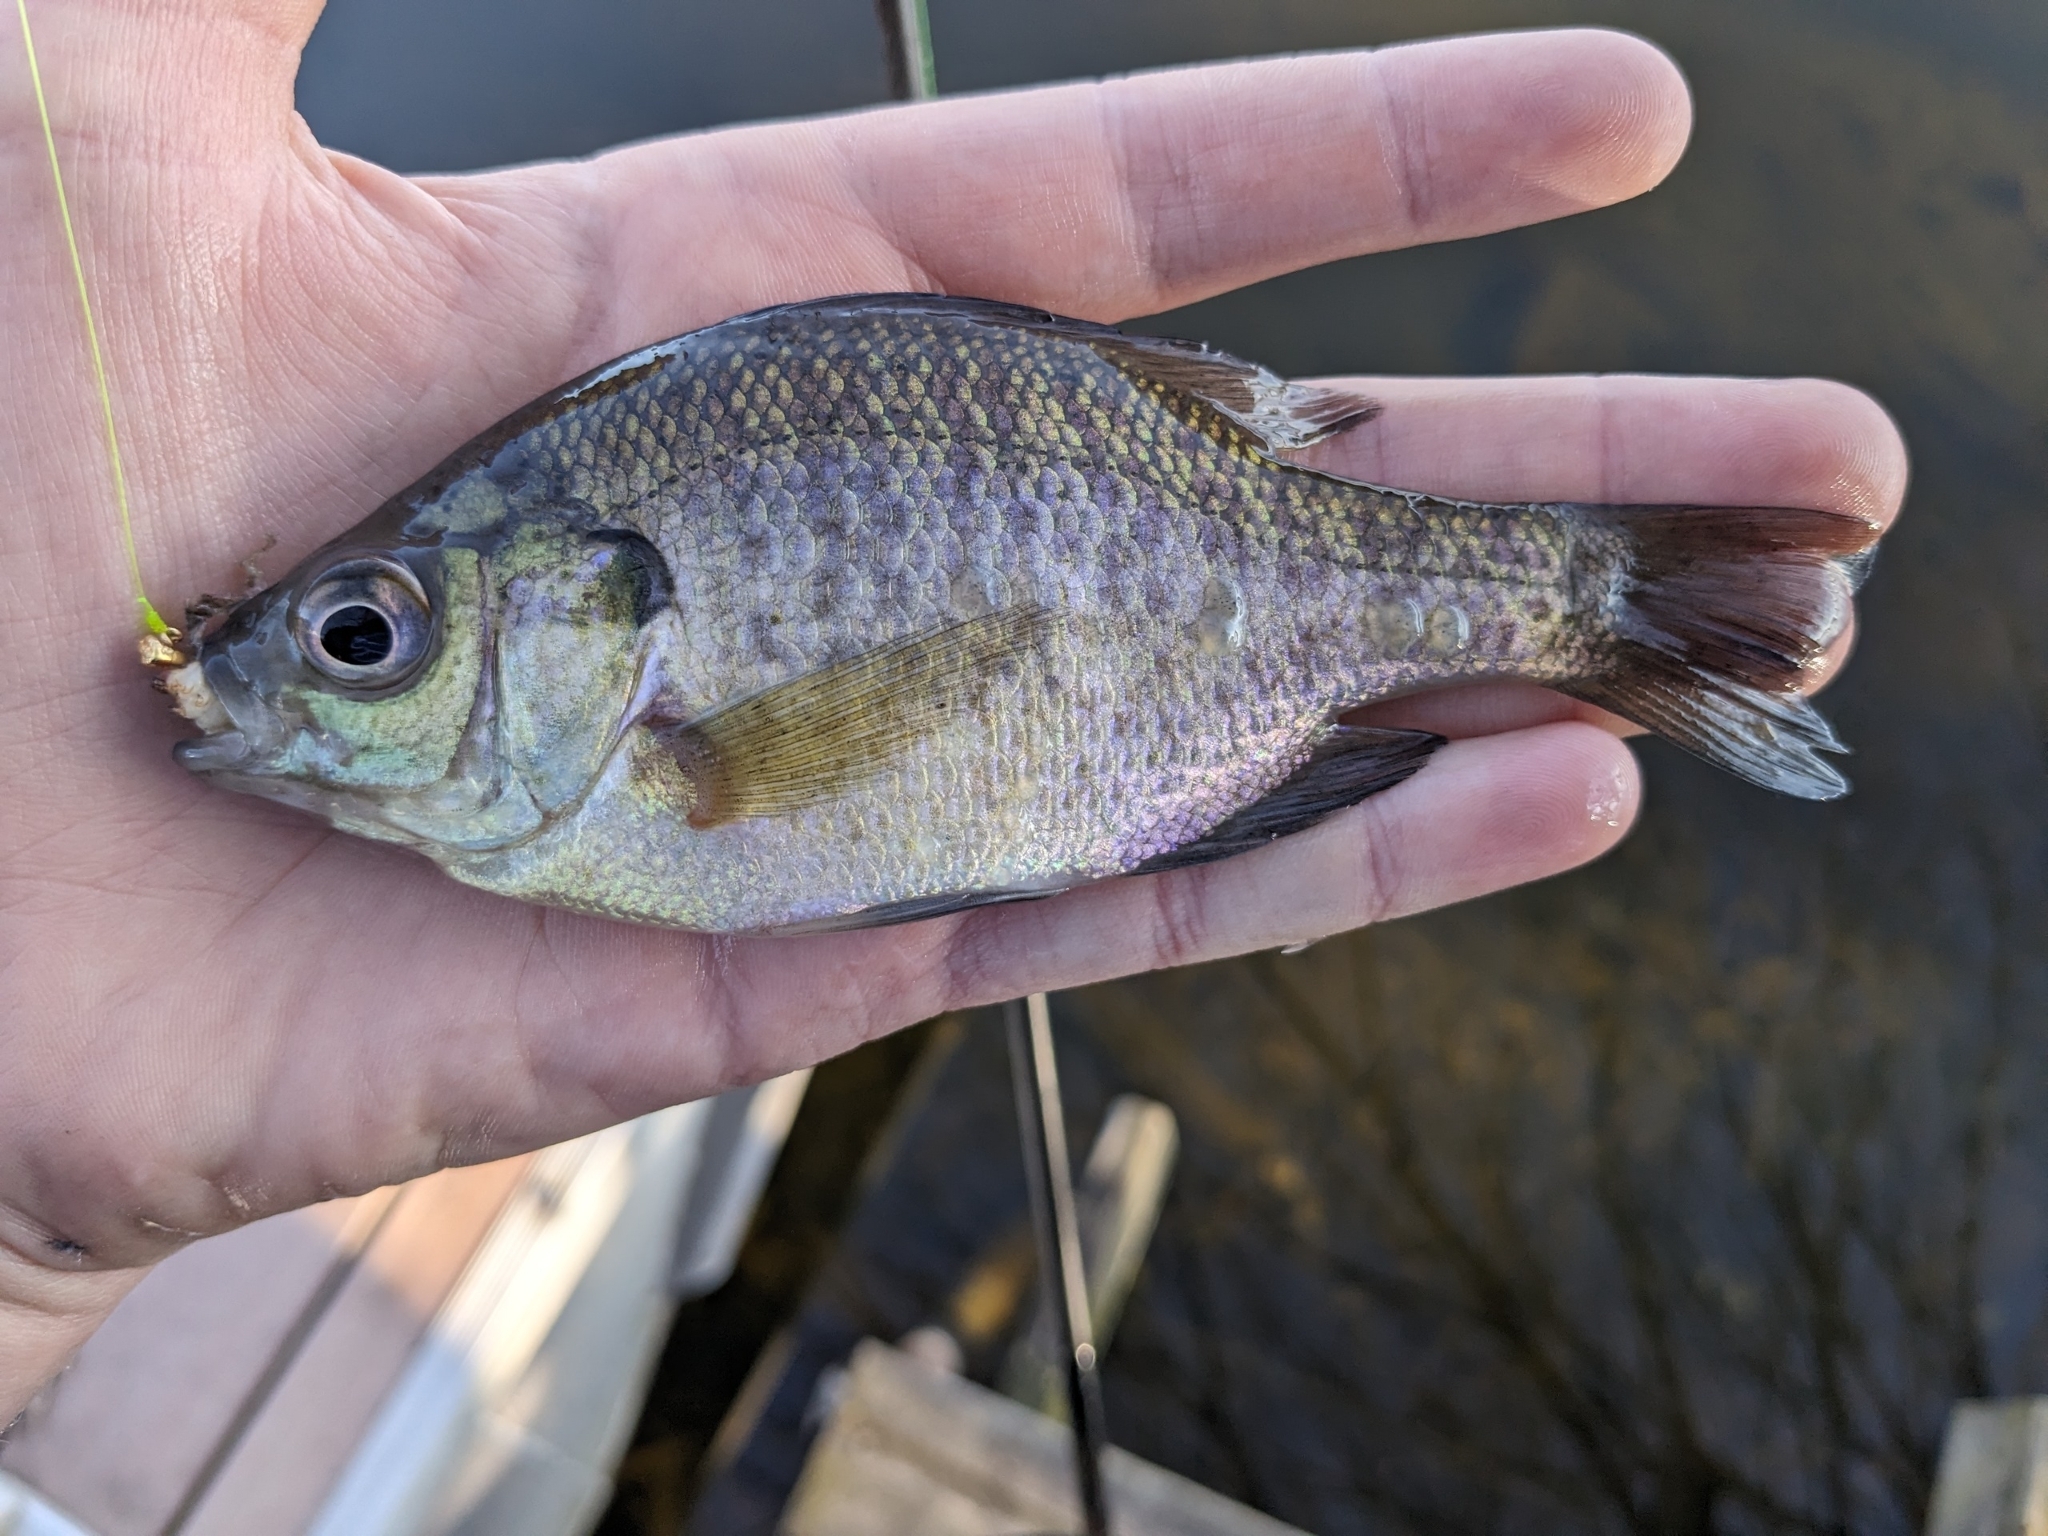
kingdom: Animalia
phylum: Chordata
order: Perciformes
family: Centrarchidae
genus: Lepomis
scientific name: Lepomis macrochirus
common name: Bluegill
